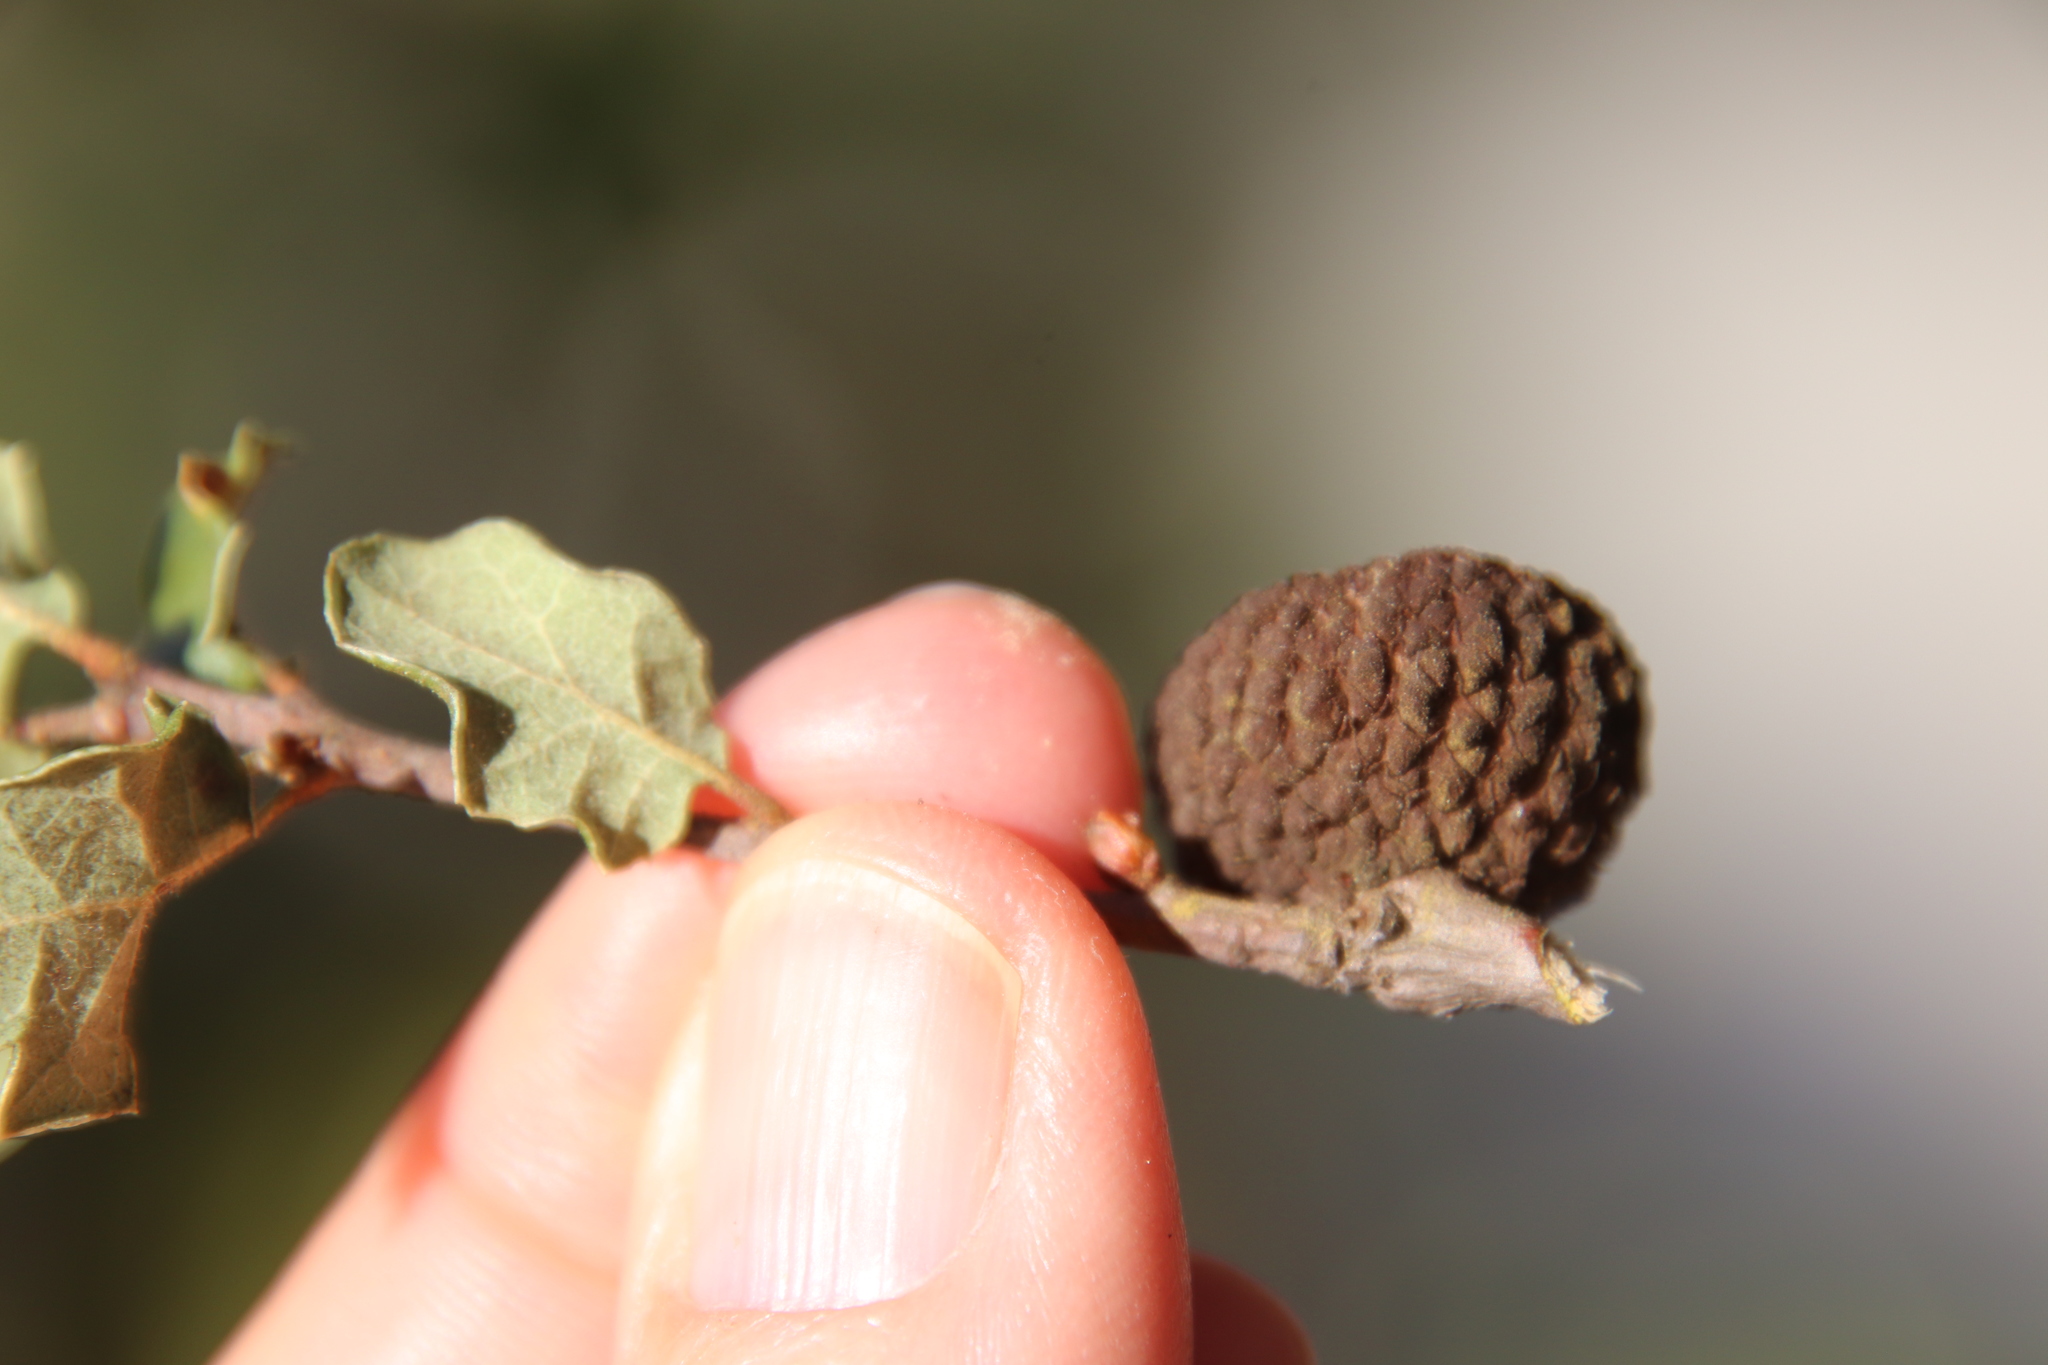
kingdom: Plantae
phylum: Tracheophyta
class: Magnoliopsida
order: Fagales
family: Fagaceae
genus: Quercus
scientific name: Quercus dumosa
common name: Coastal sage scrub oak
